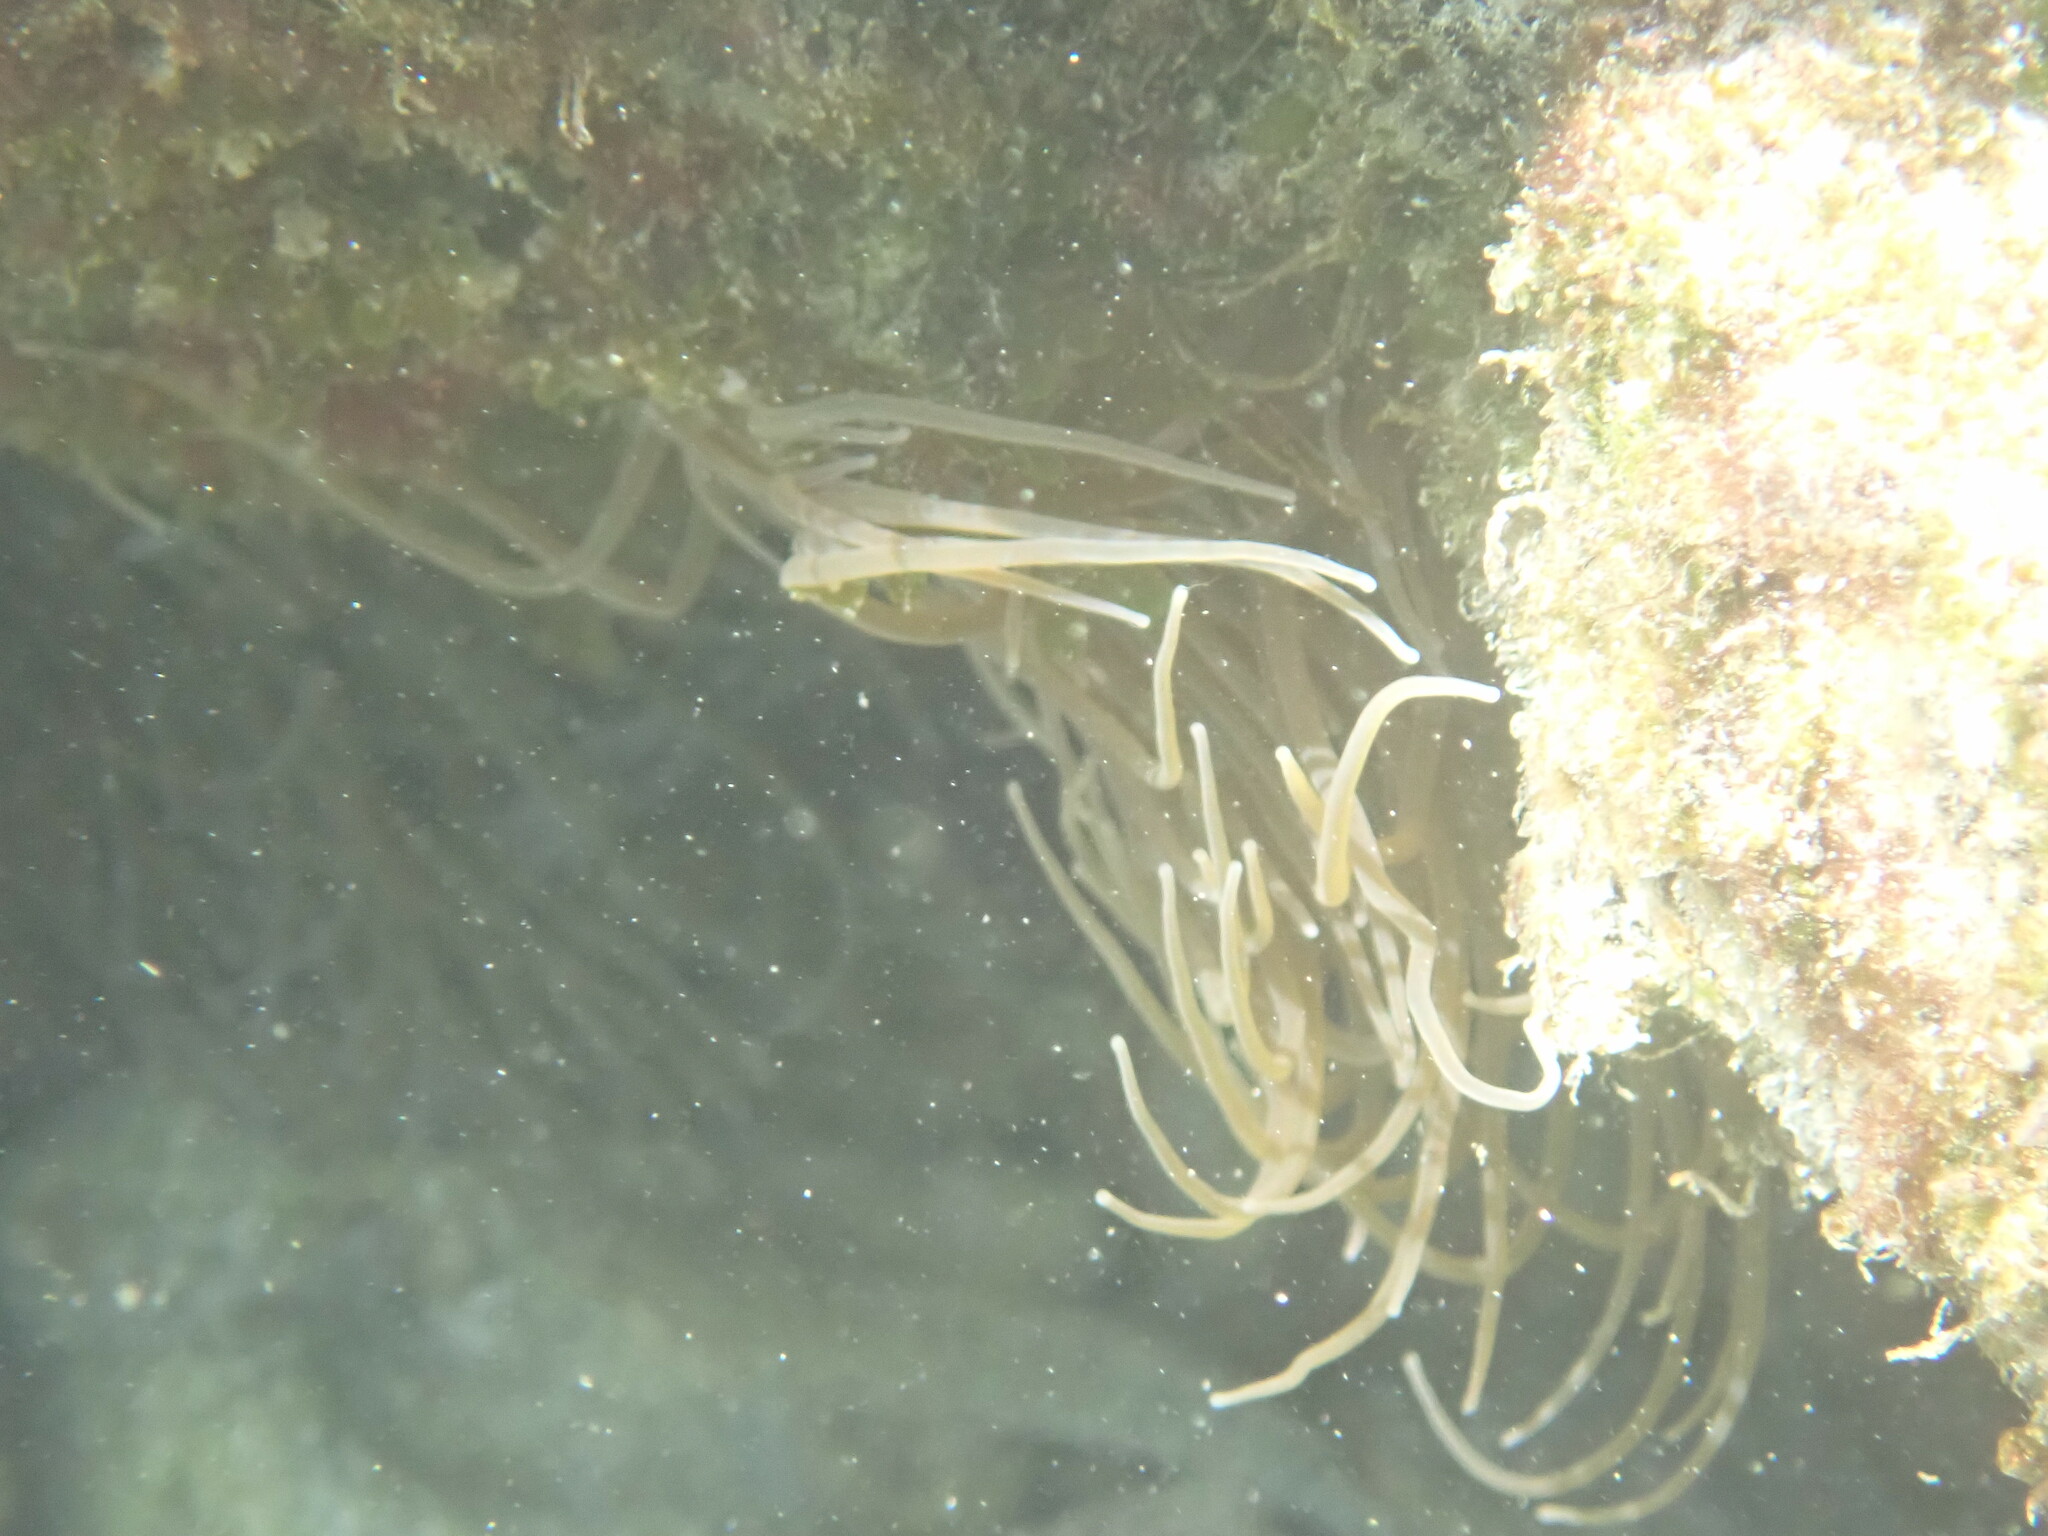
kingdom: Animalia
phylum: Cnidaria
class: Anthozoa
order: Actiniaria
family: Actiniidae
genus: Anemonia
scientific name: Anemonia viridis
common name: Snakelocks anemone
